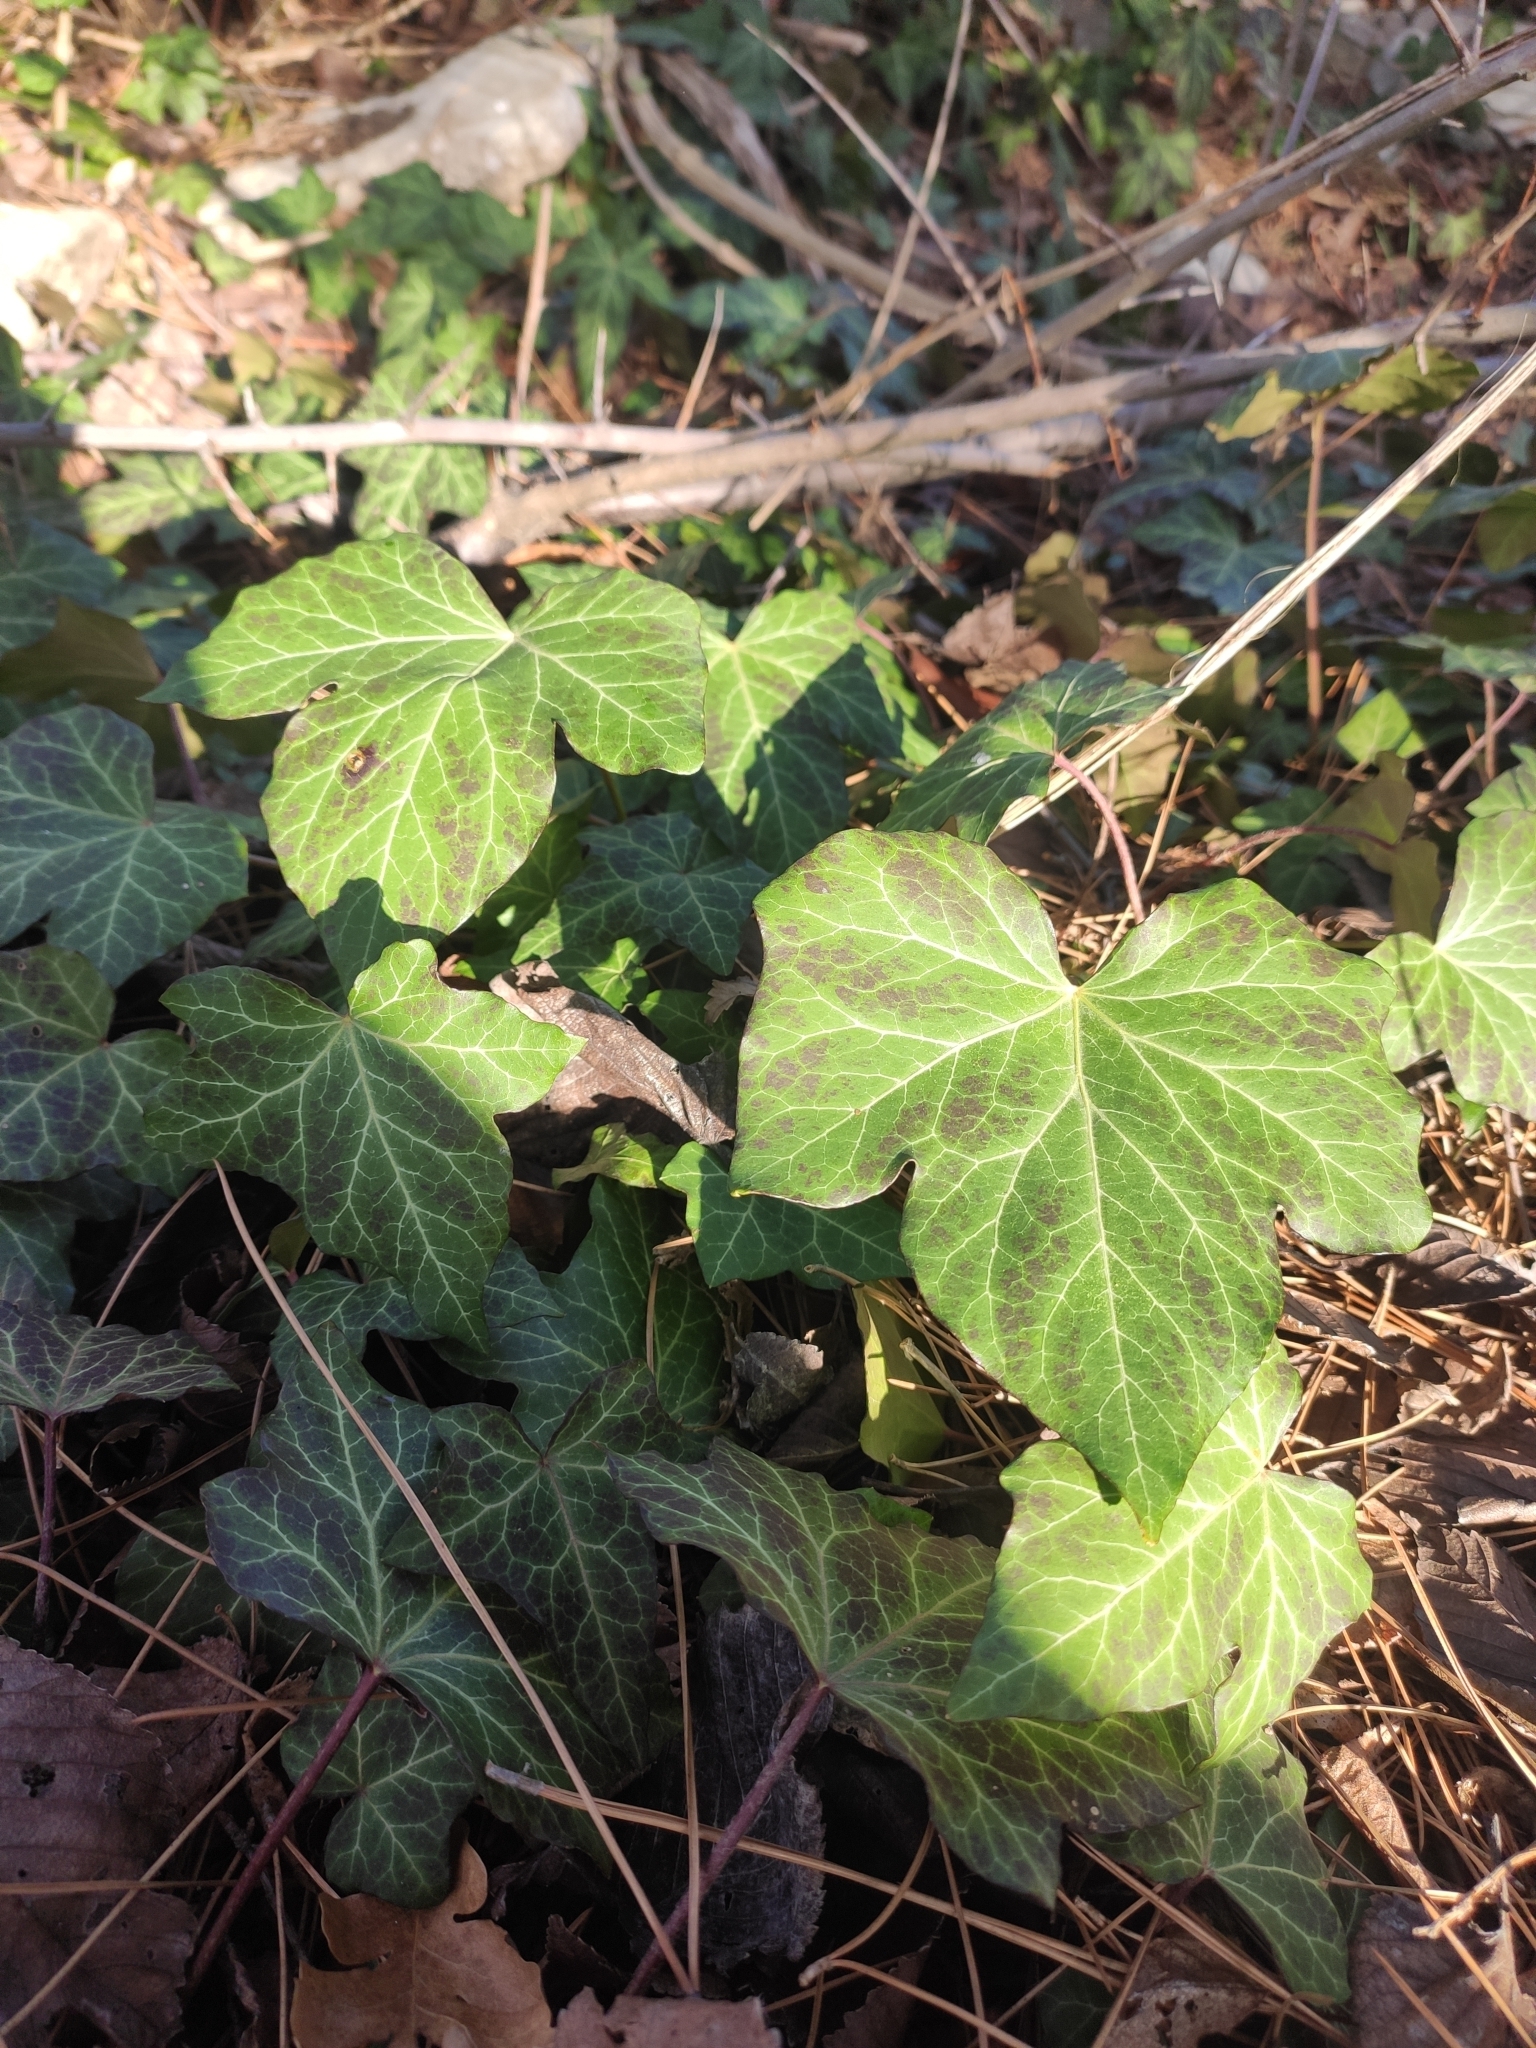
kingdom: Plantae
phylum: Tracheophyta
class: Magnoliopsida
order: Apiales
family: Araliaceae
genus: Hedera
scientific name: Hedera helix
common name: Ivy
